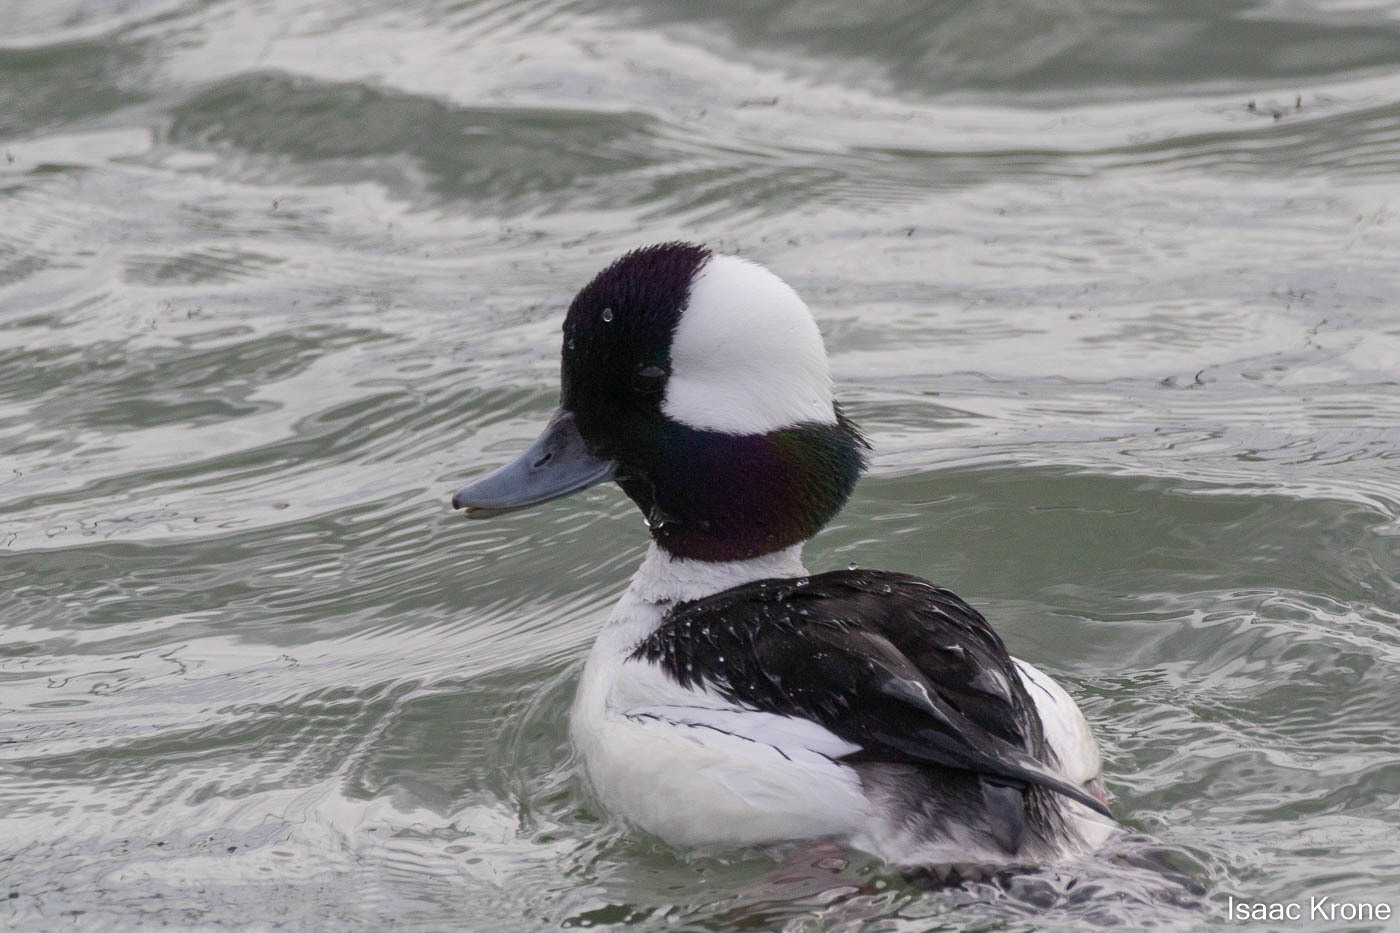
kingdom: Animalia
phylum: Chordata
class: Aves
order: Anseriformes
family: Anatidae
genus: Bucephala
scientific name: Bucephala albeola
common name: Bufflehead
